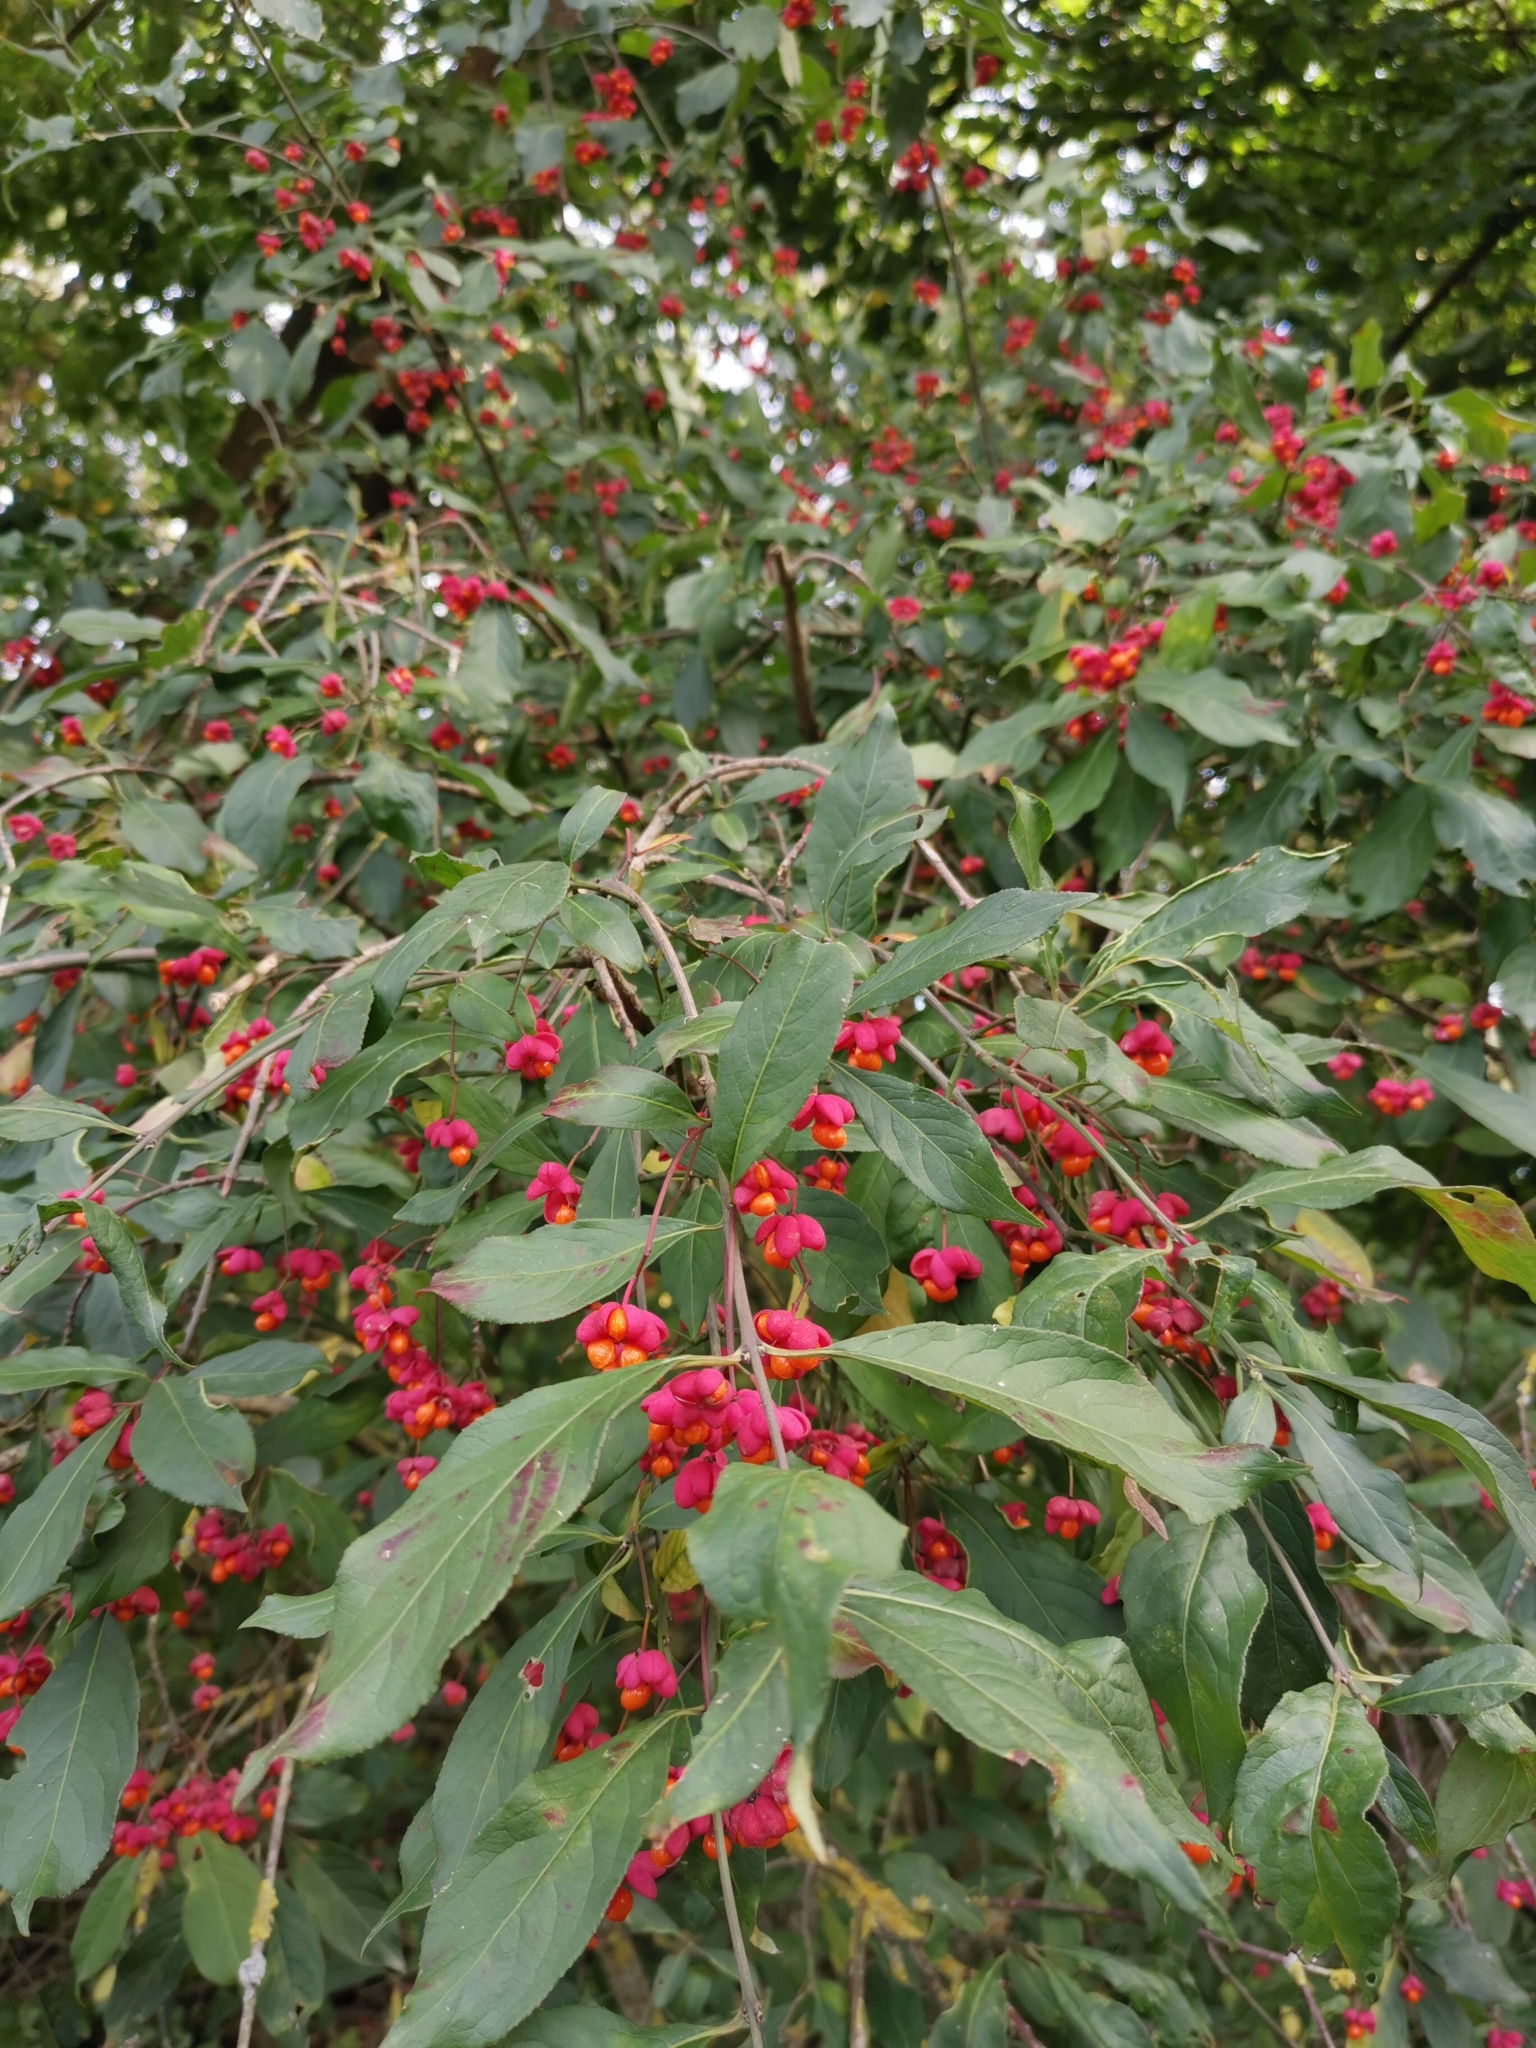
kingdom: Plantae
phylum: Tracheophyta
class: Magnoliopsida
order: Celastrales
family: Celastraceae
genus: Euonymus
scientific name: Euonymus europaeus
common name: Spindle
